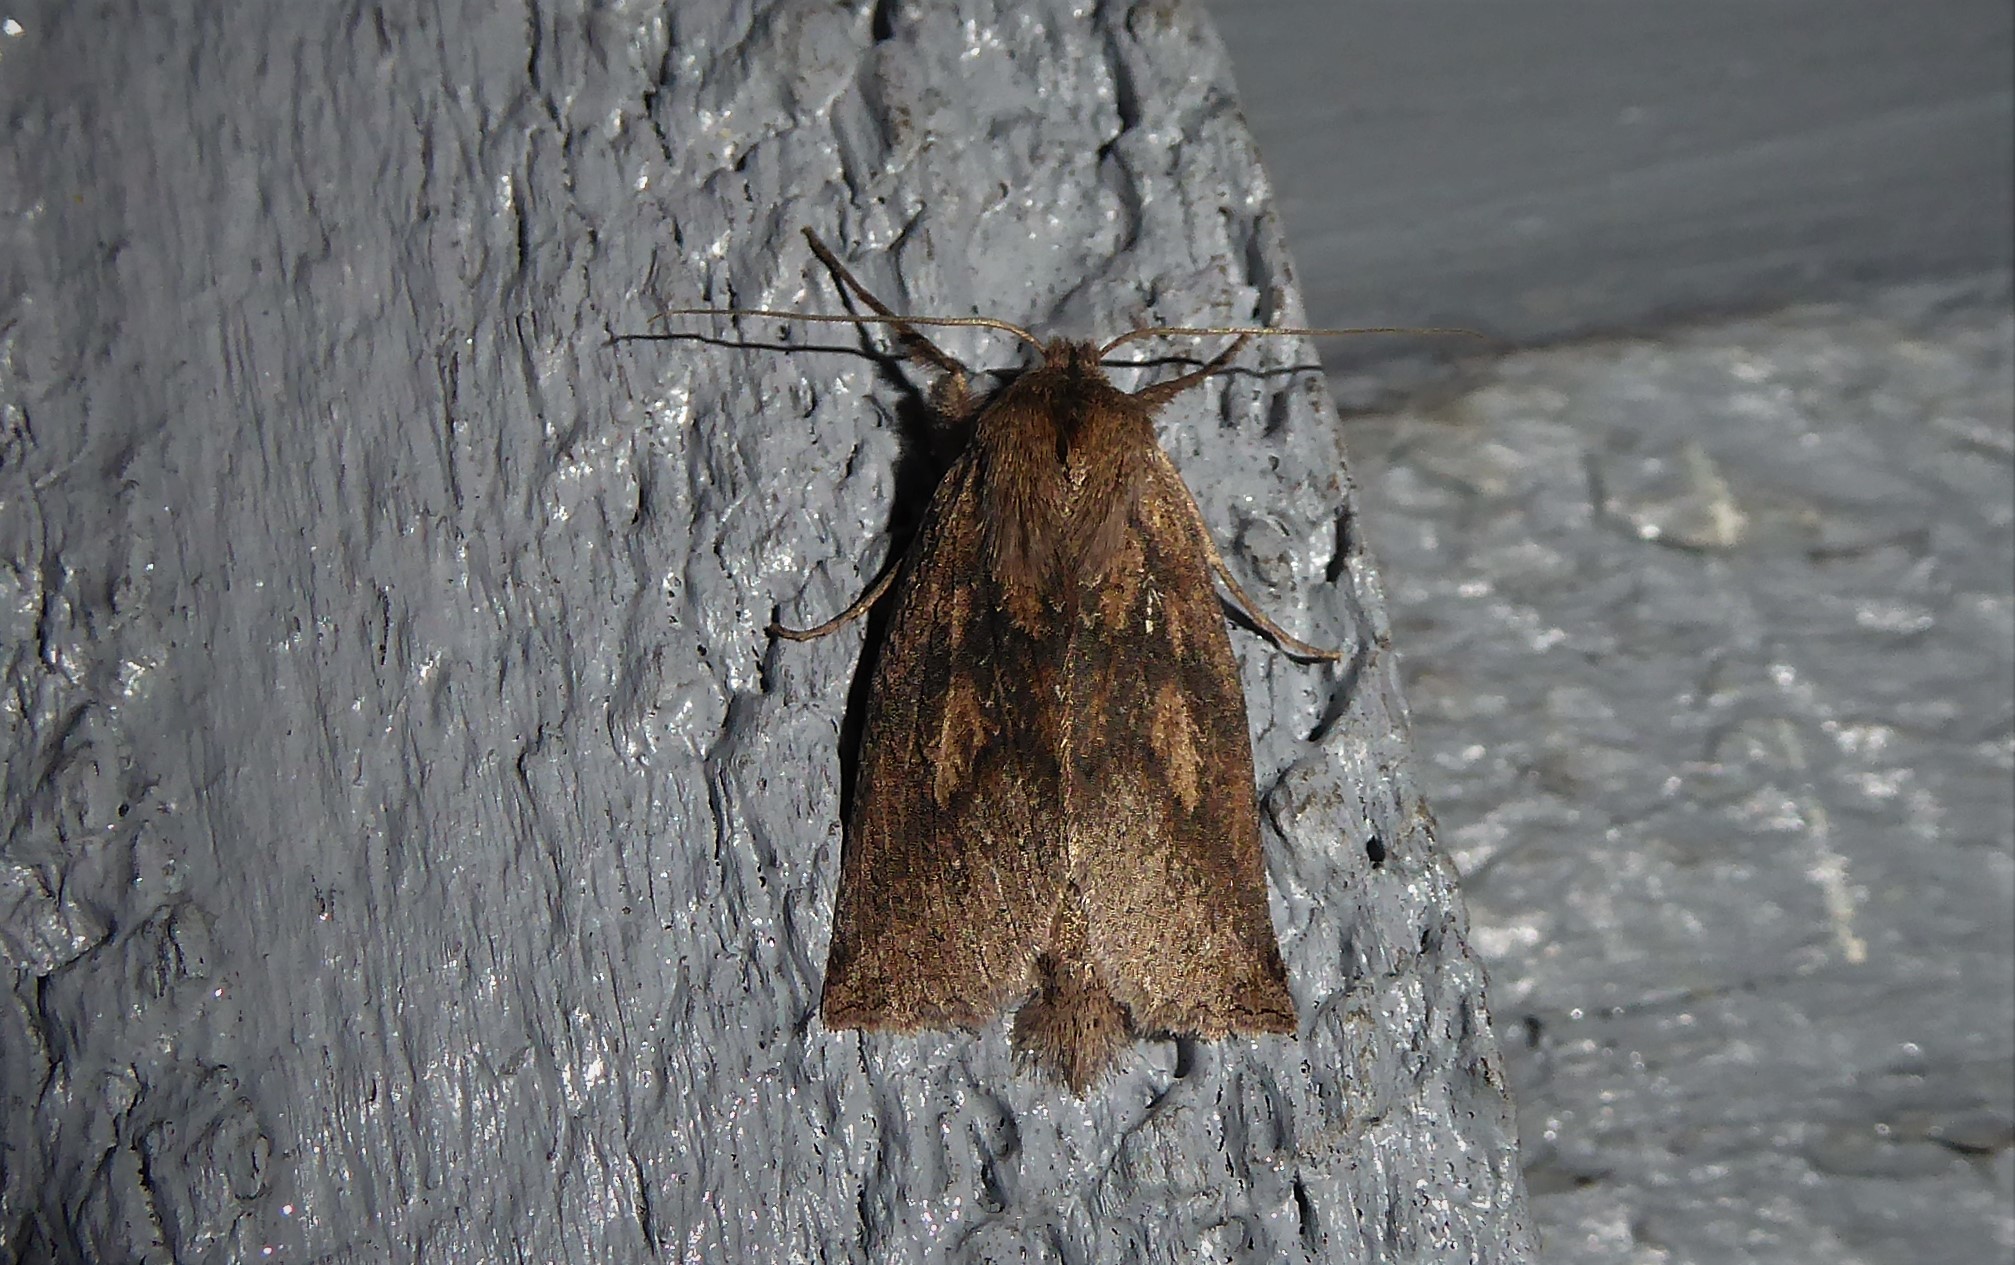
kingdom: Animalia
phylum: Arthropoda
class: Insecta
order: Lepidoptera
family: Geometridae
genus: Declana
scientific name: Declana leptomera
